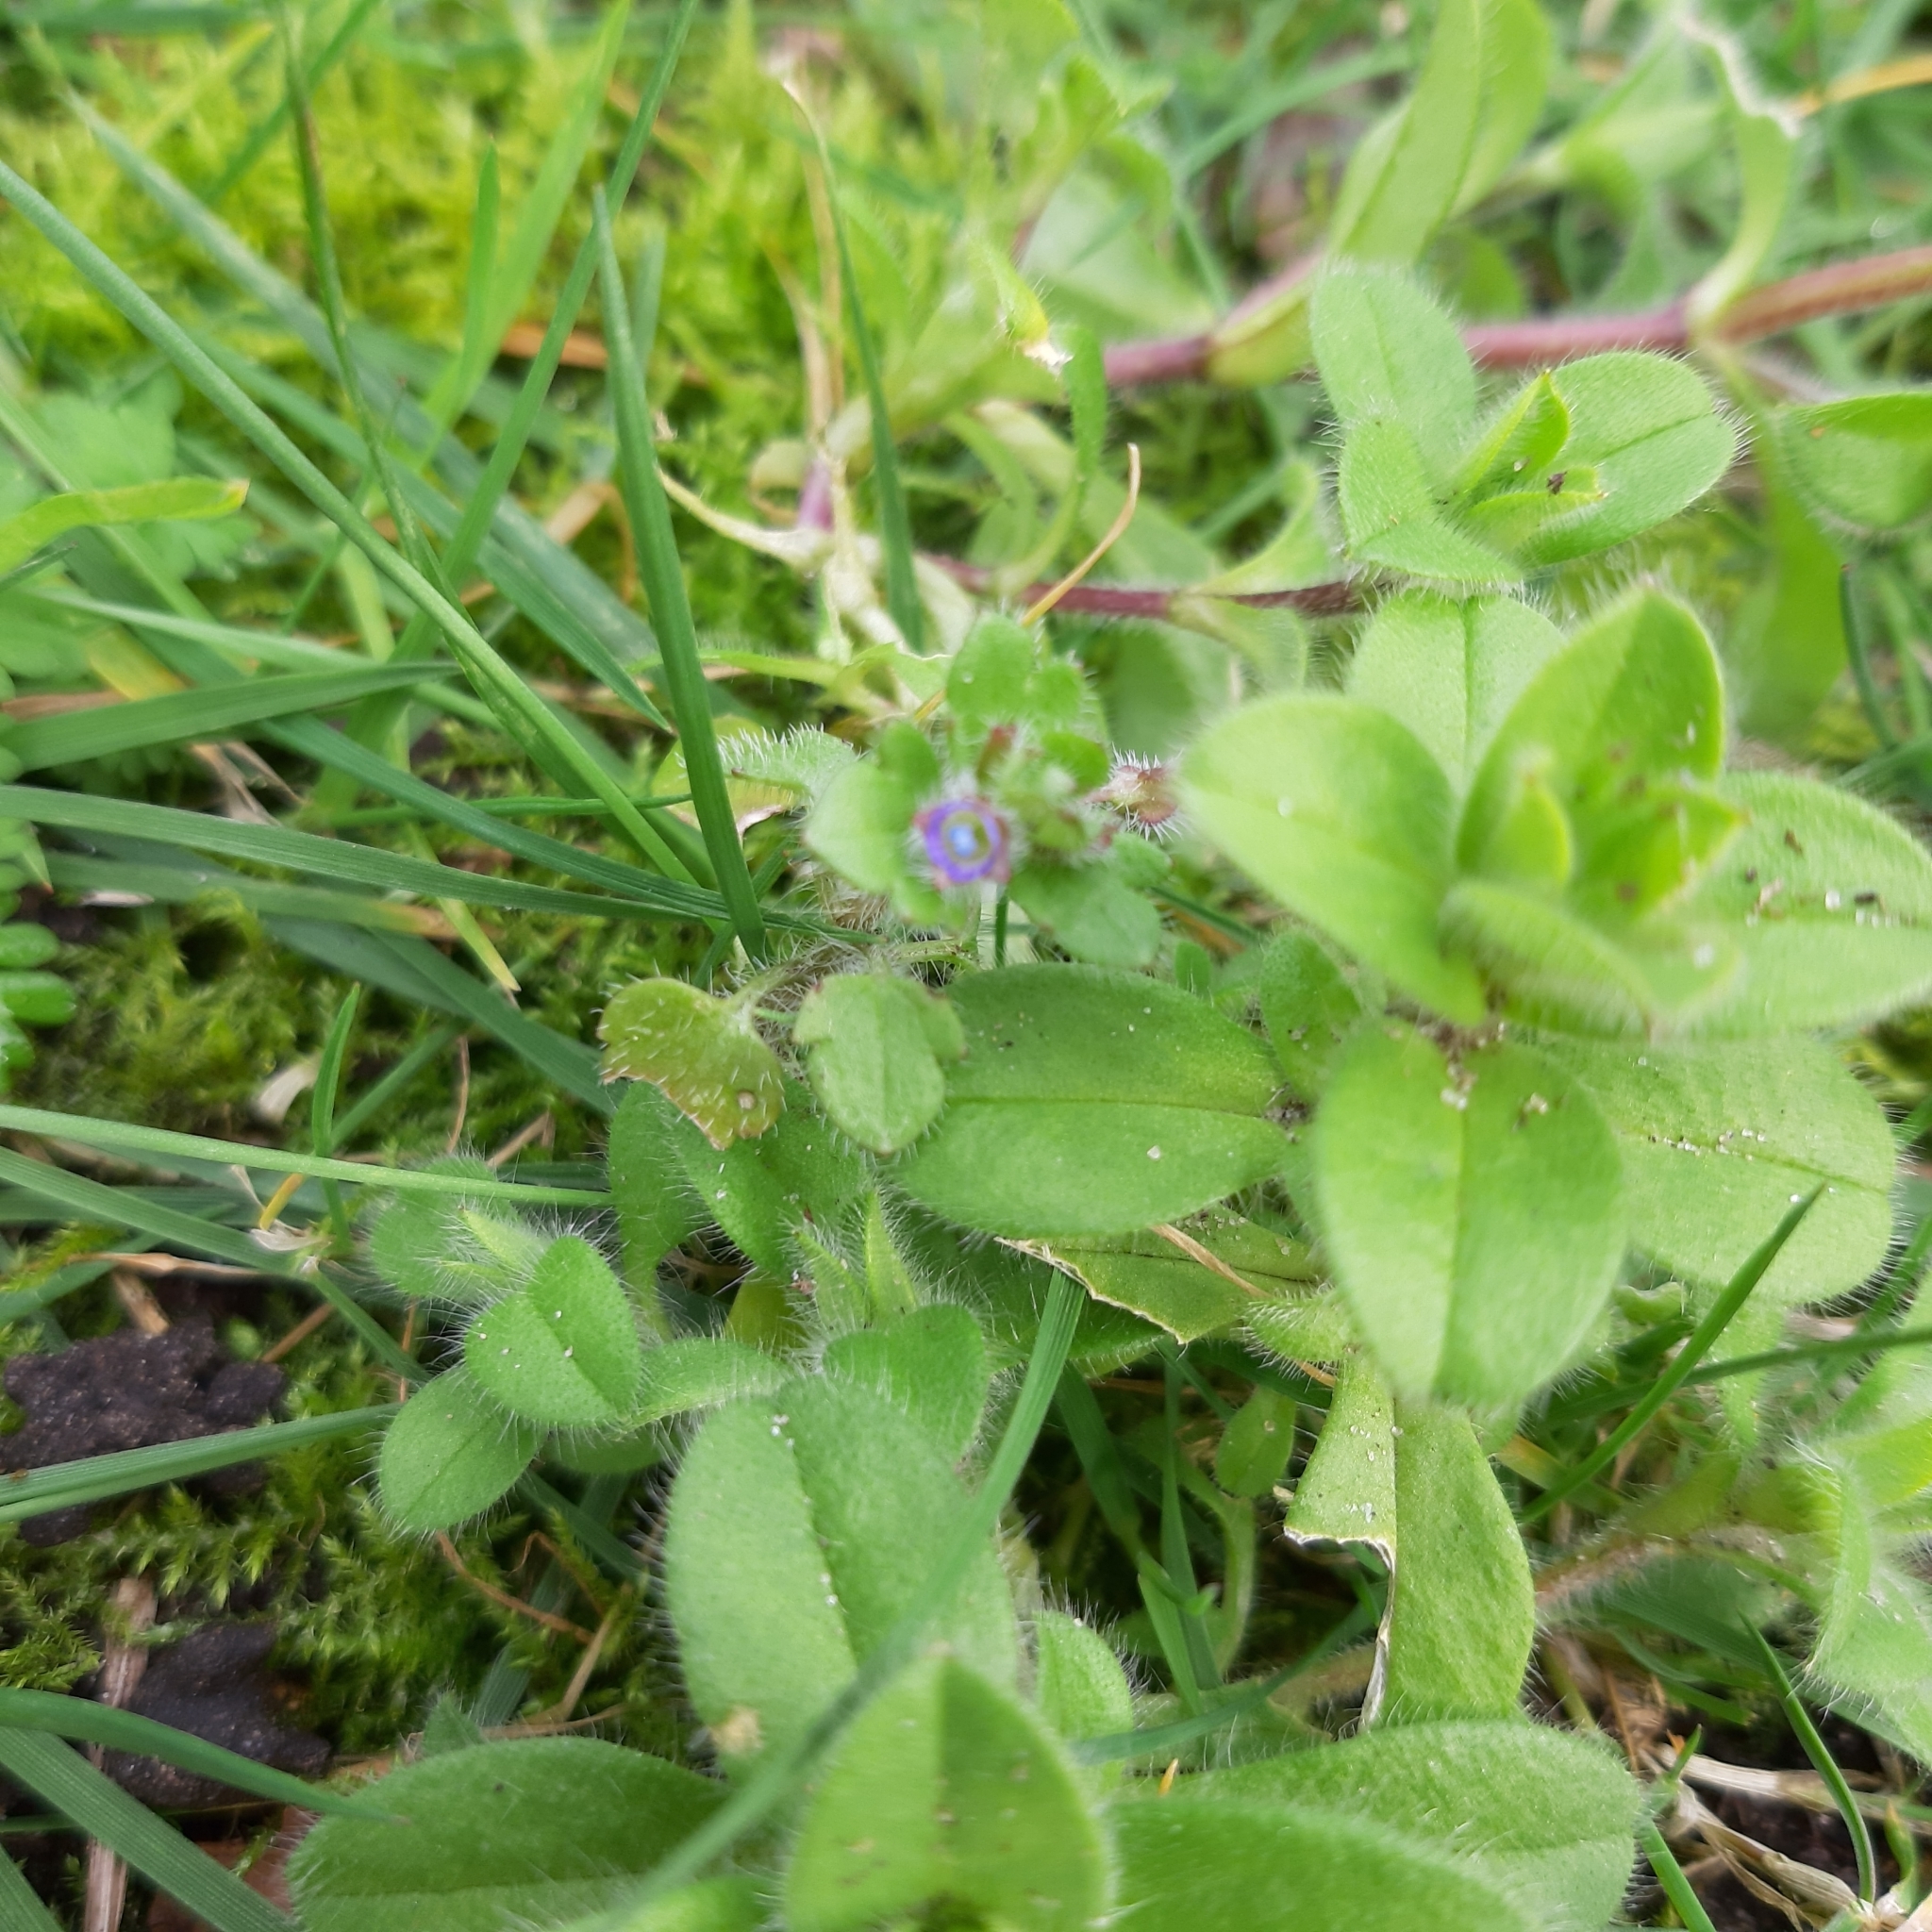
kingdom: Plantae
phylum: Tracheophyta
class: Magnoliopsida
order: Caryophyllales
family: Caryophyllaceae
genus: Cerastium
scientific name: Cerastium glomeratum
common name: Sticky chickweed
